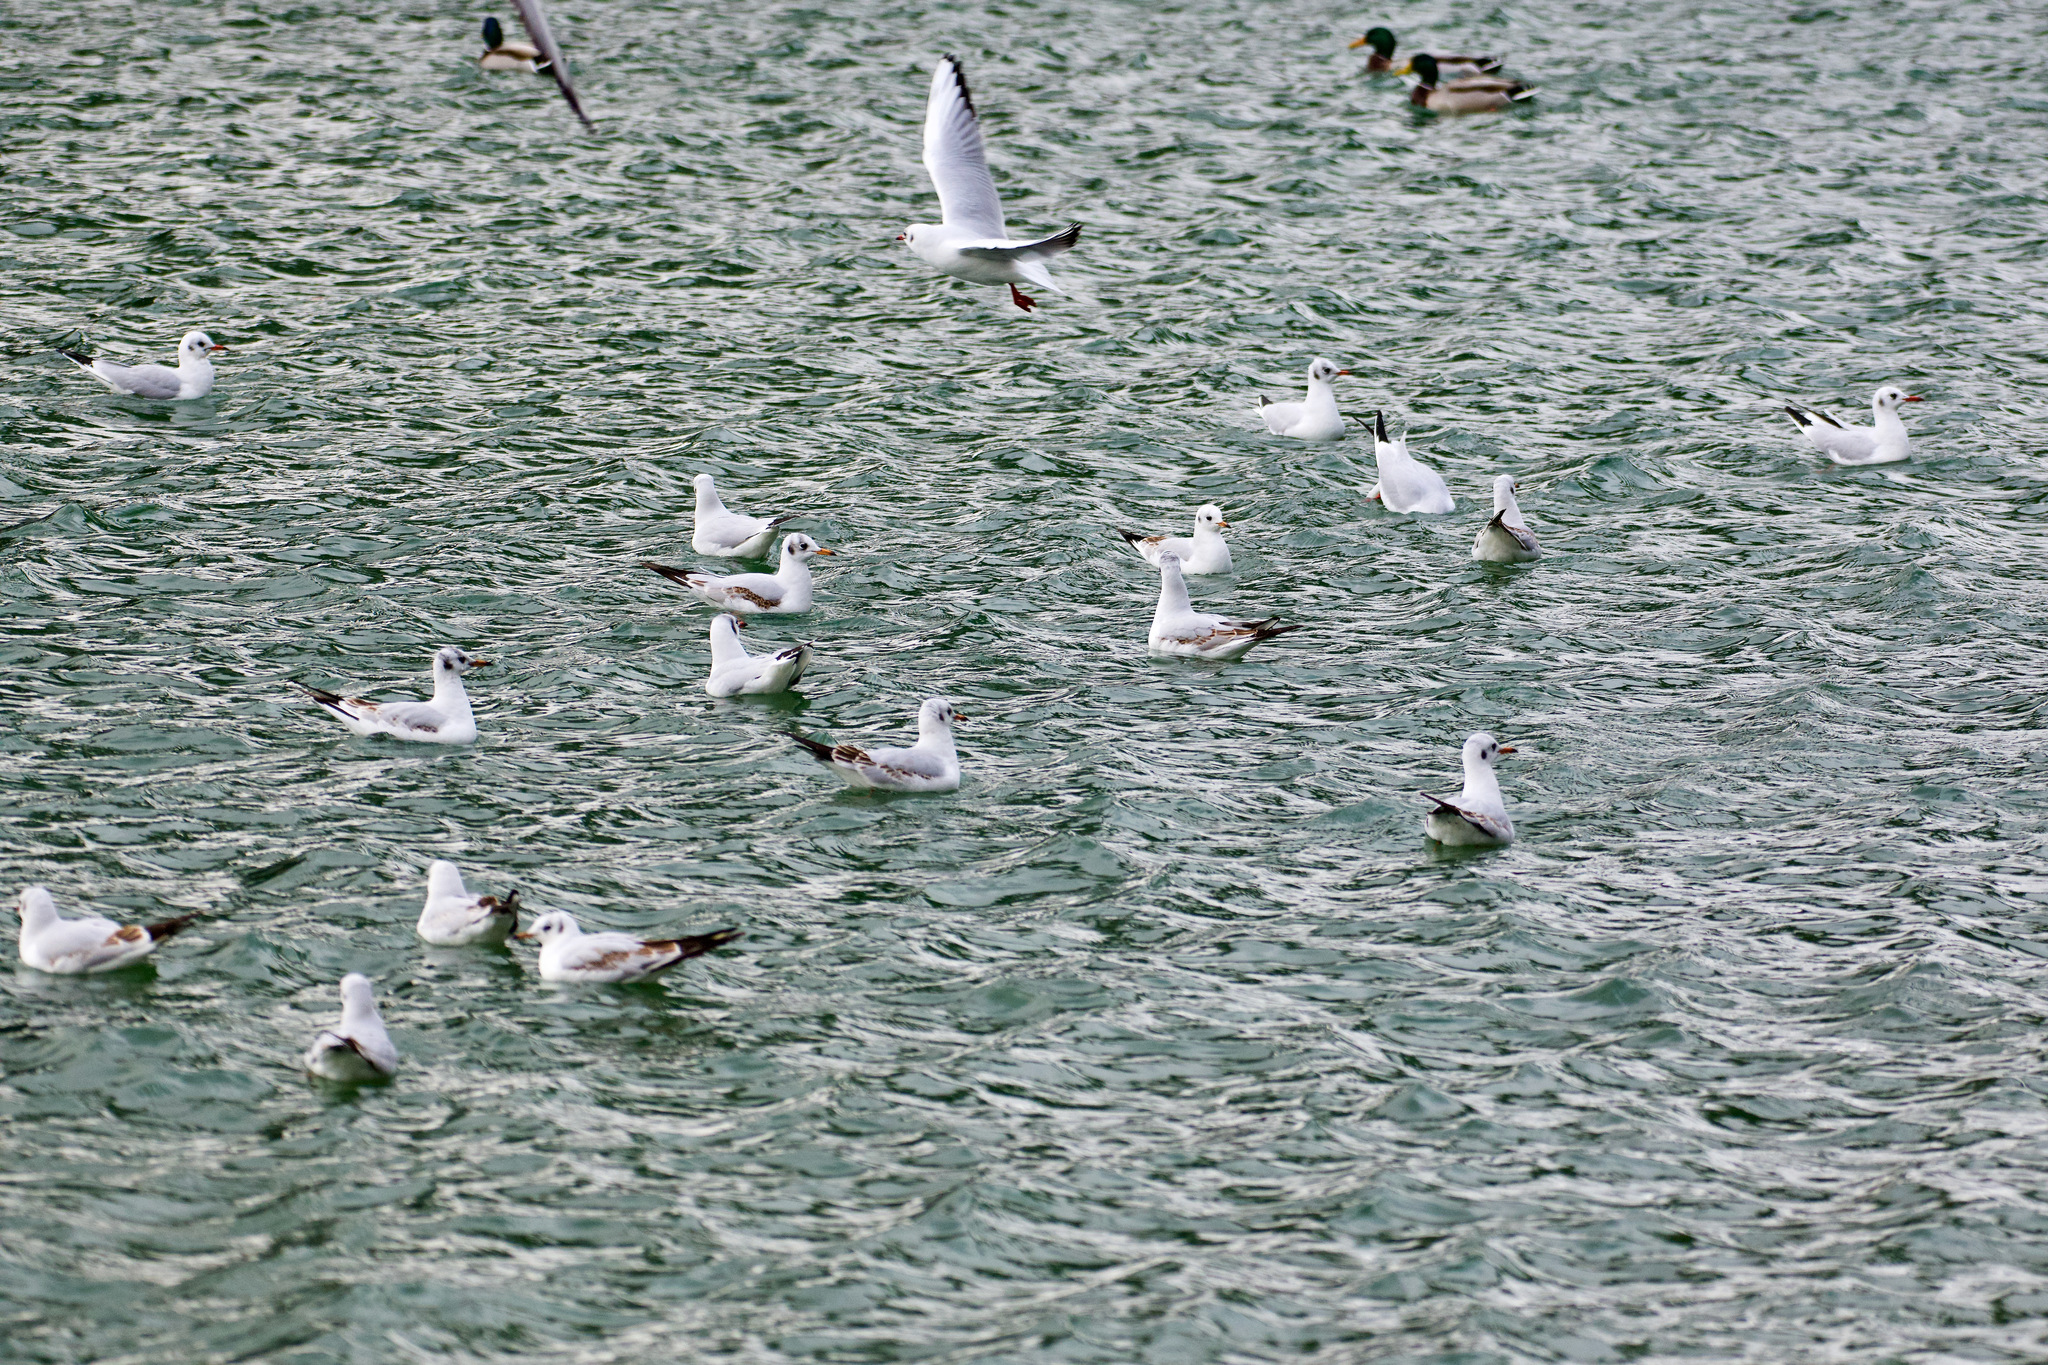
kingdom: Animalia
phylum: Chordata
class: Aves
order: Charadriiformes
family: Laridae
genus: Chroicocephalus
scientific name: Chroicocephalus ridibundus
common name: Black-headed gull
